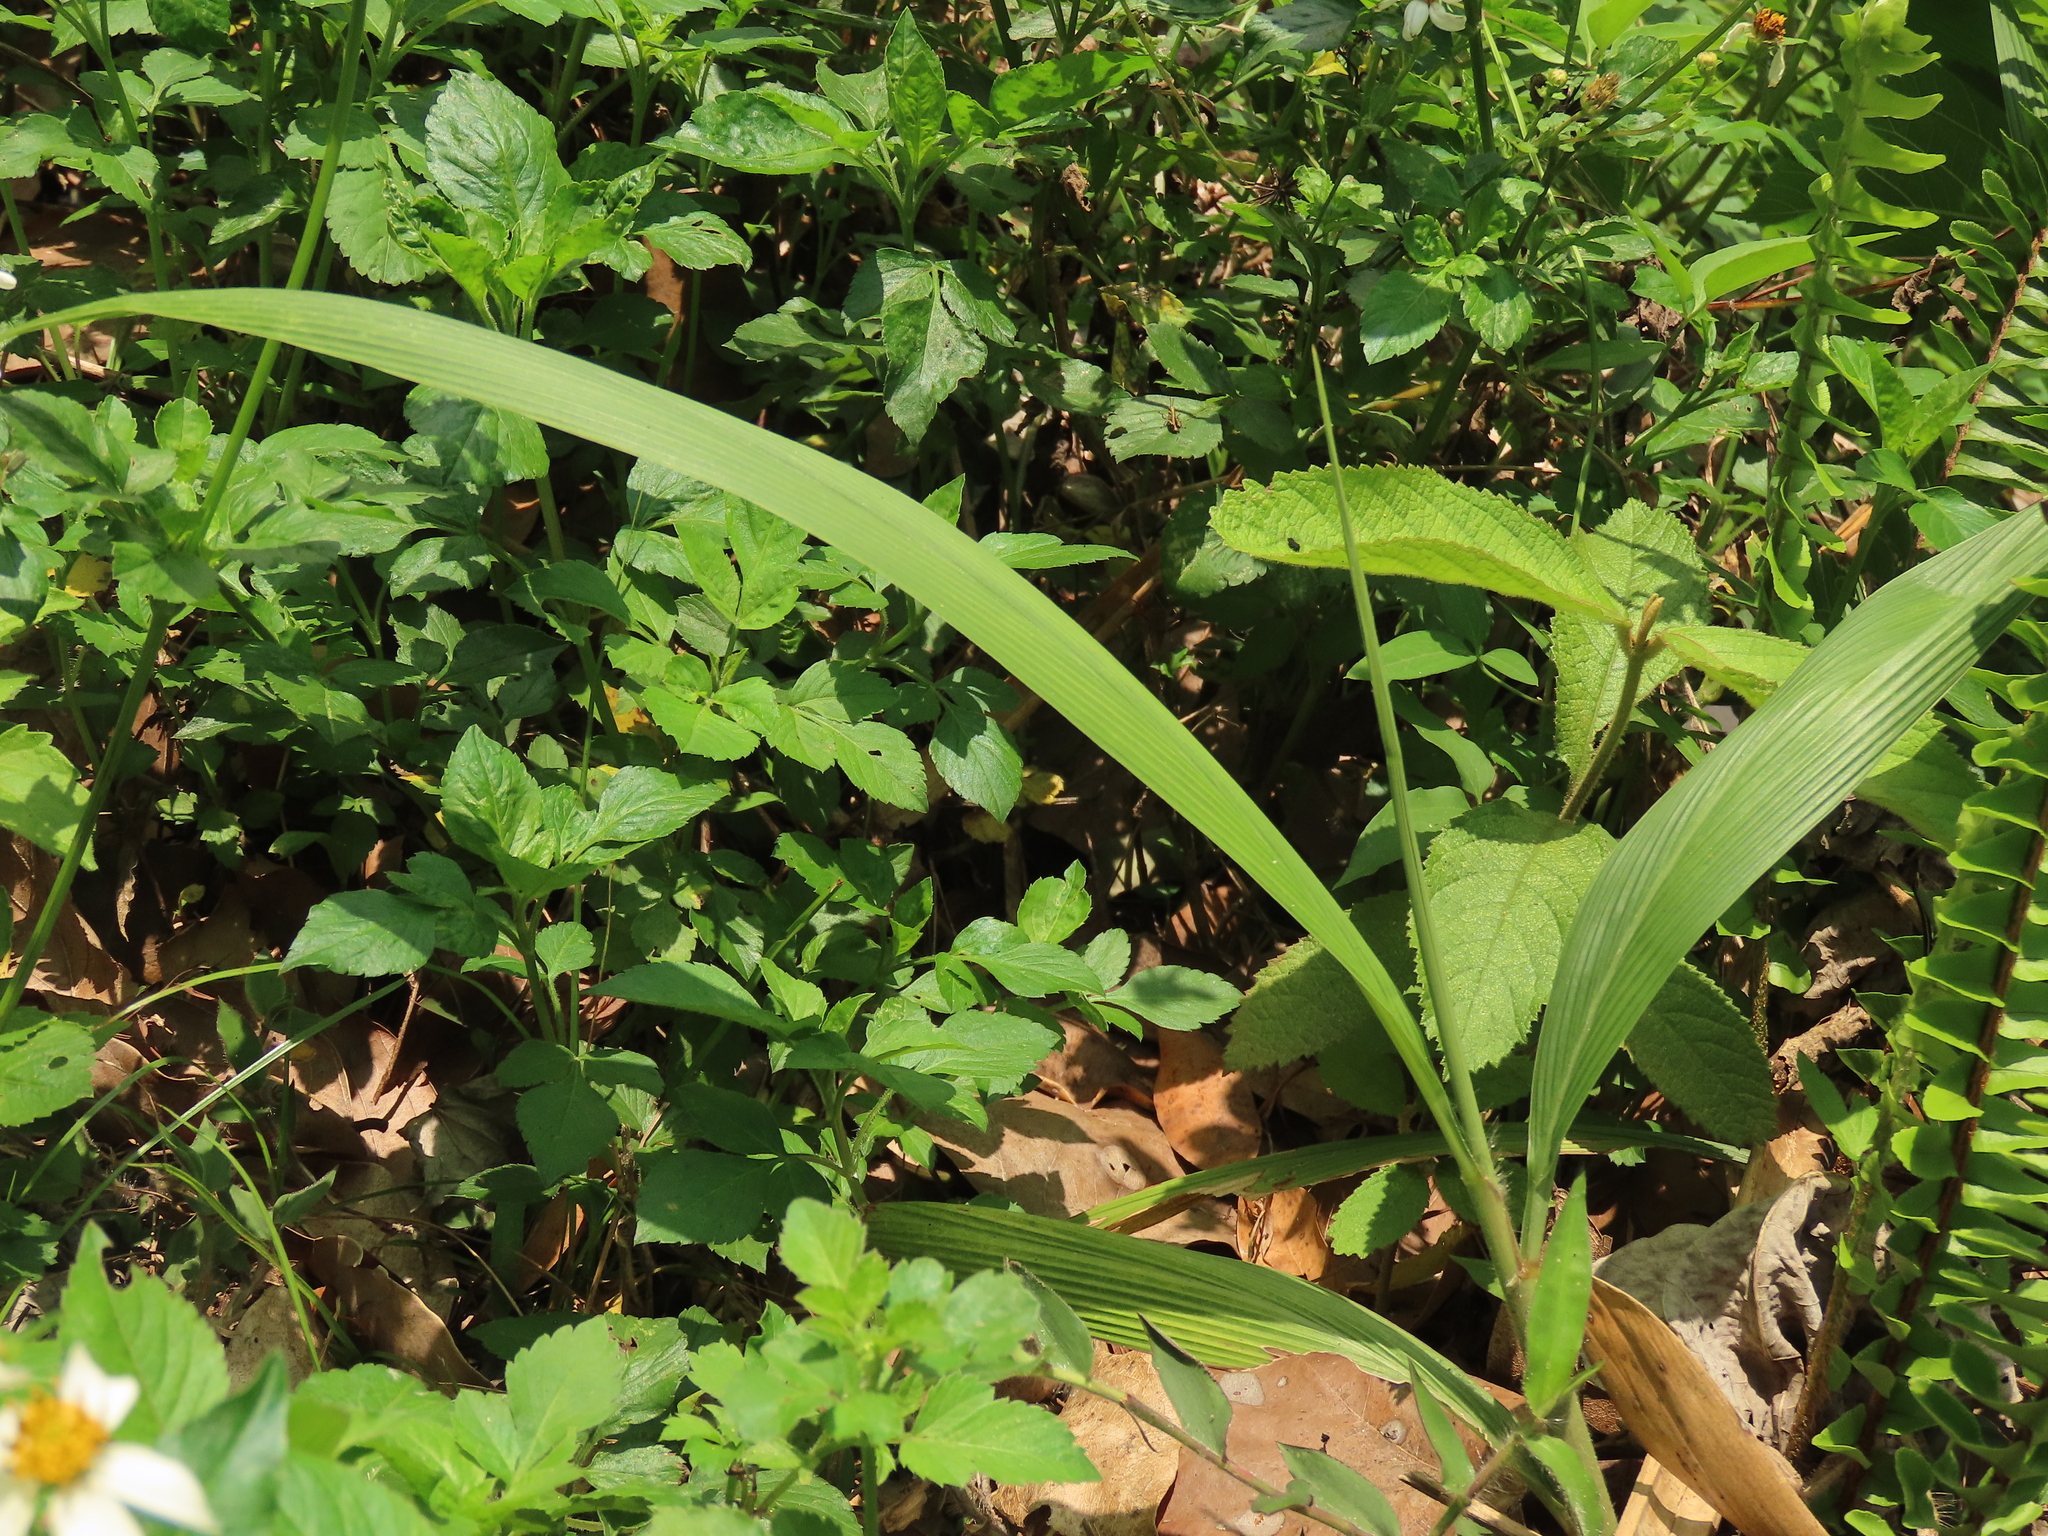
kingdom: Plantae
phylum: Tracheophyta
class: Liliopsida
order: Poales
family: Poaceae
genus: Setaria
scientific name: Setaria palmifolia
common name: Broadleaved bristlegrass
